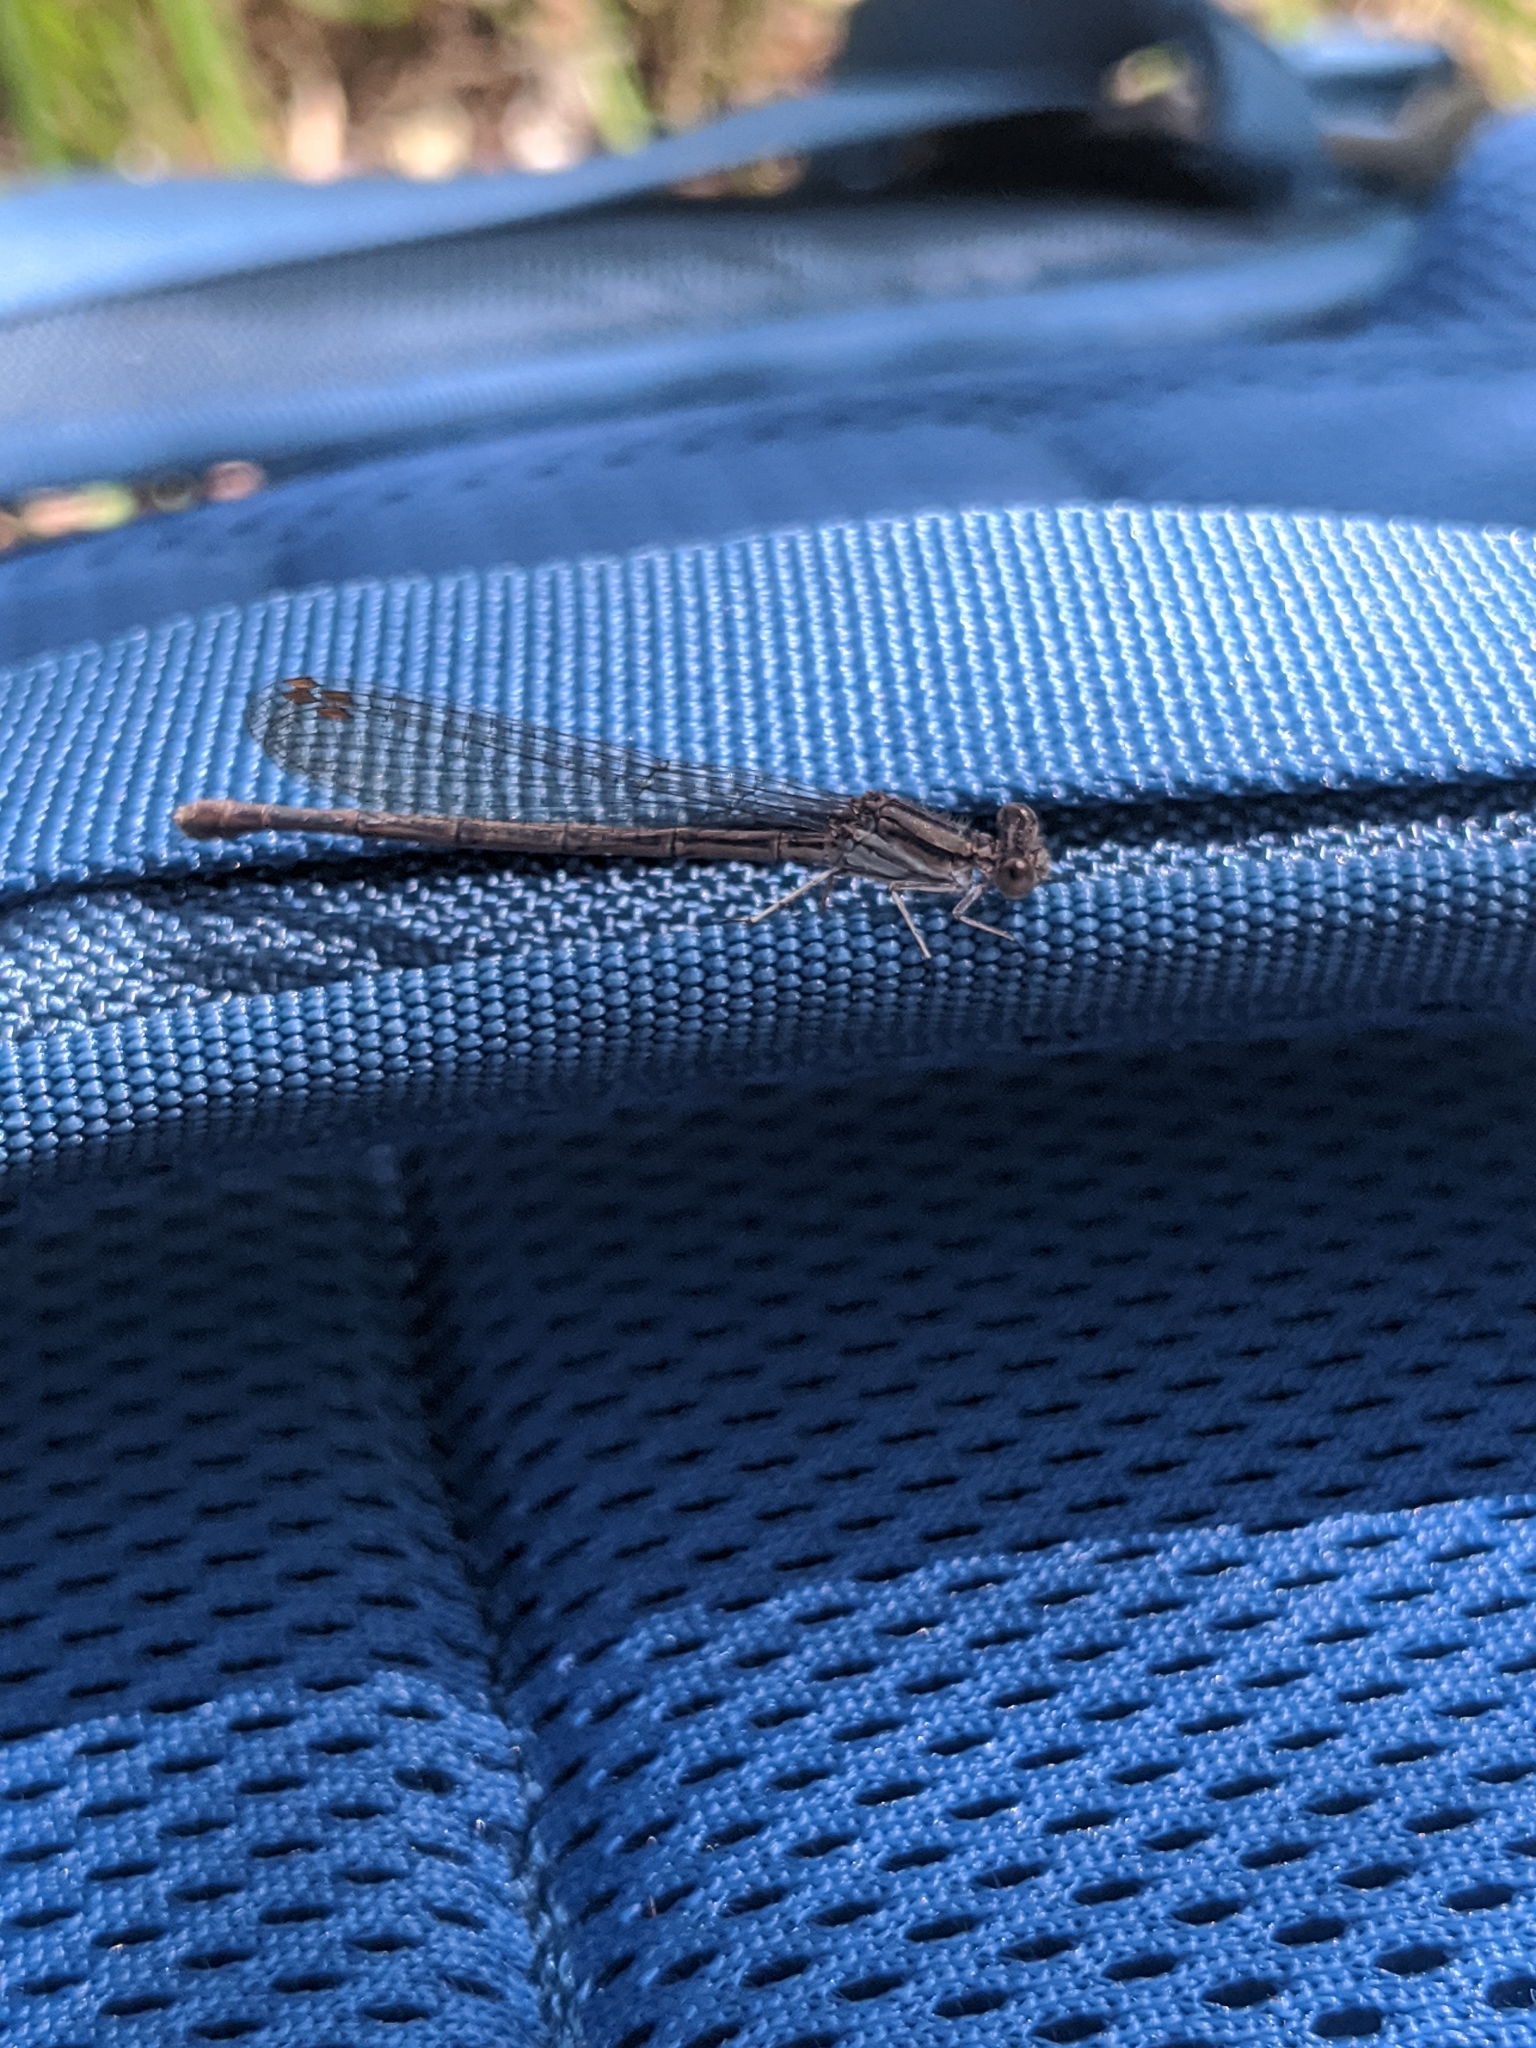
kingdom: Animalia
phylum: Arthropoda
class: Insecta
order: Odonata
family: Coenagrionidae
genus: Argia
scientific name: Argia fumipennis
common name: Variable dancer
